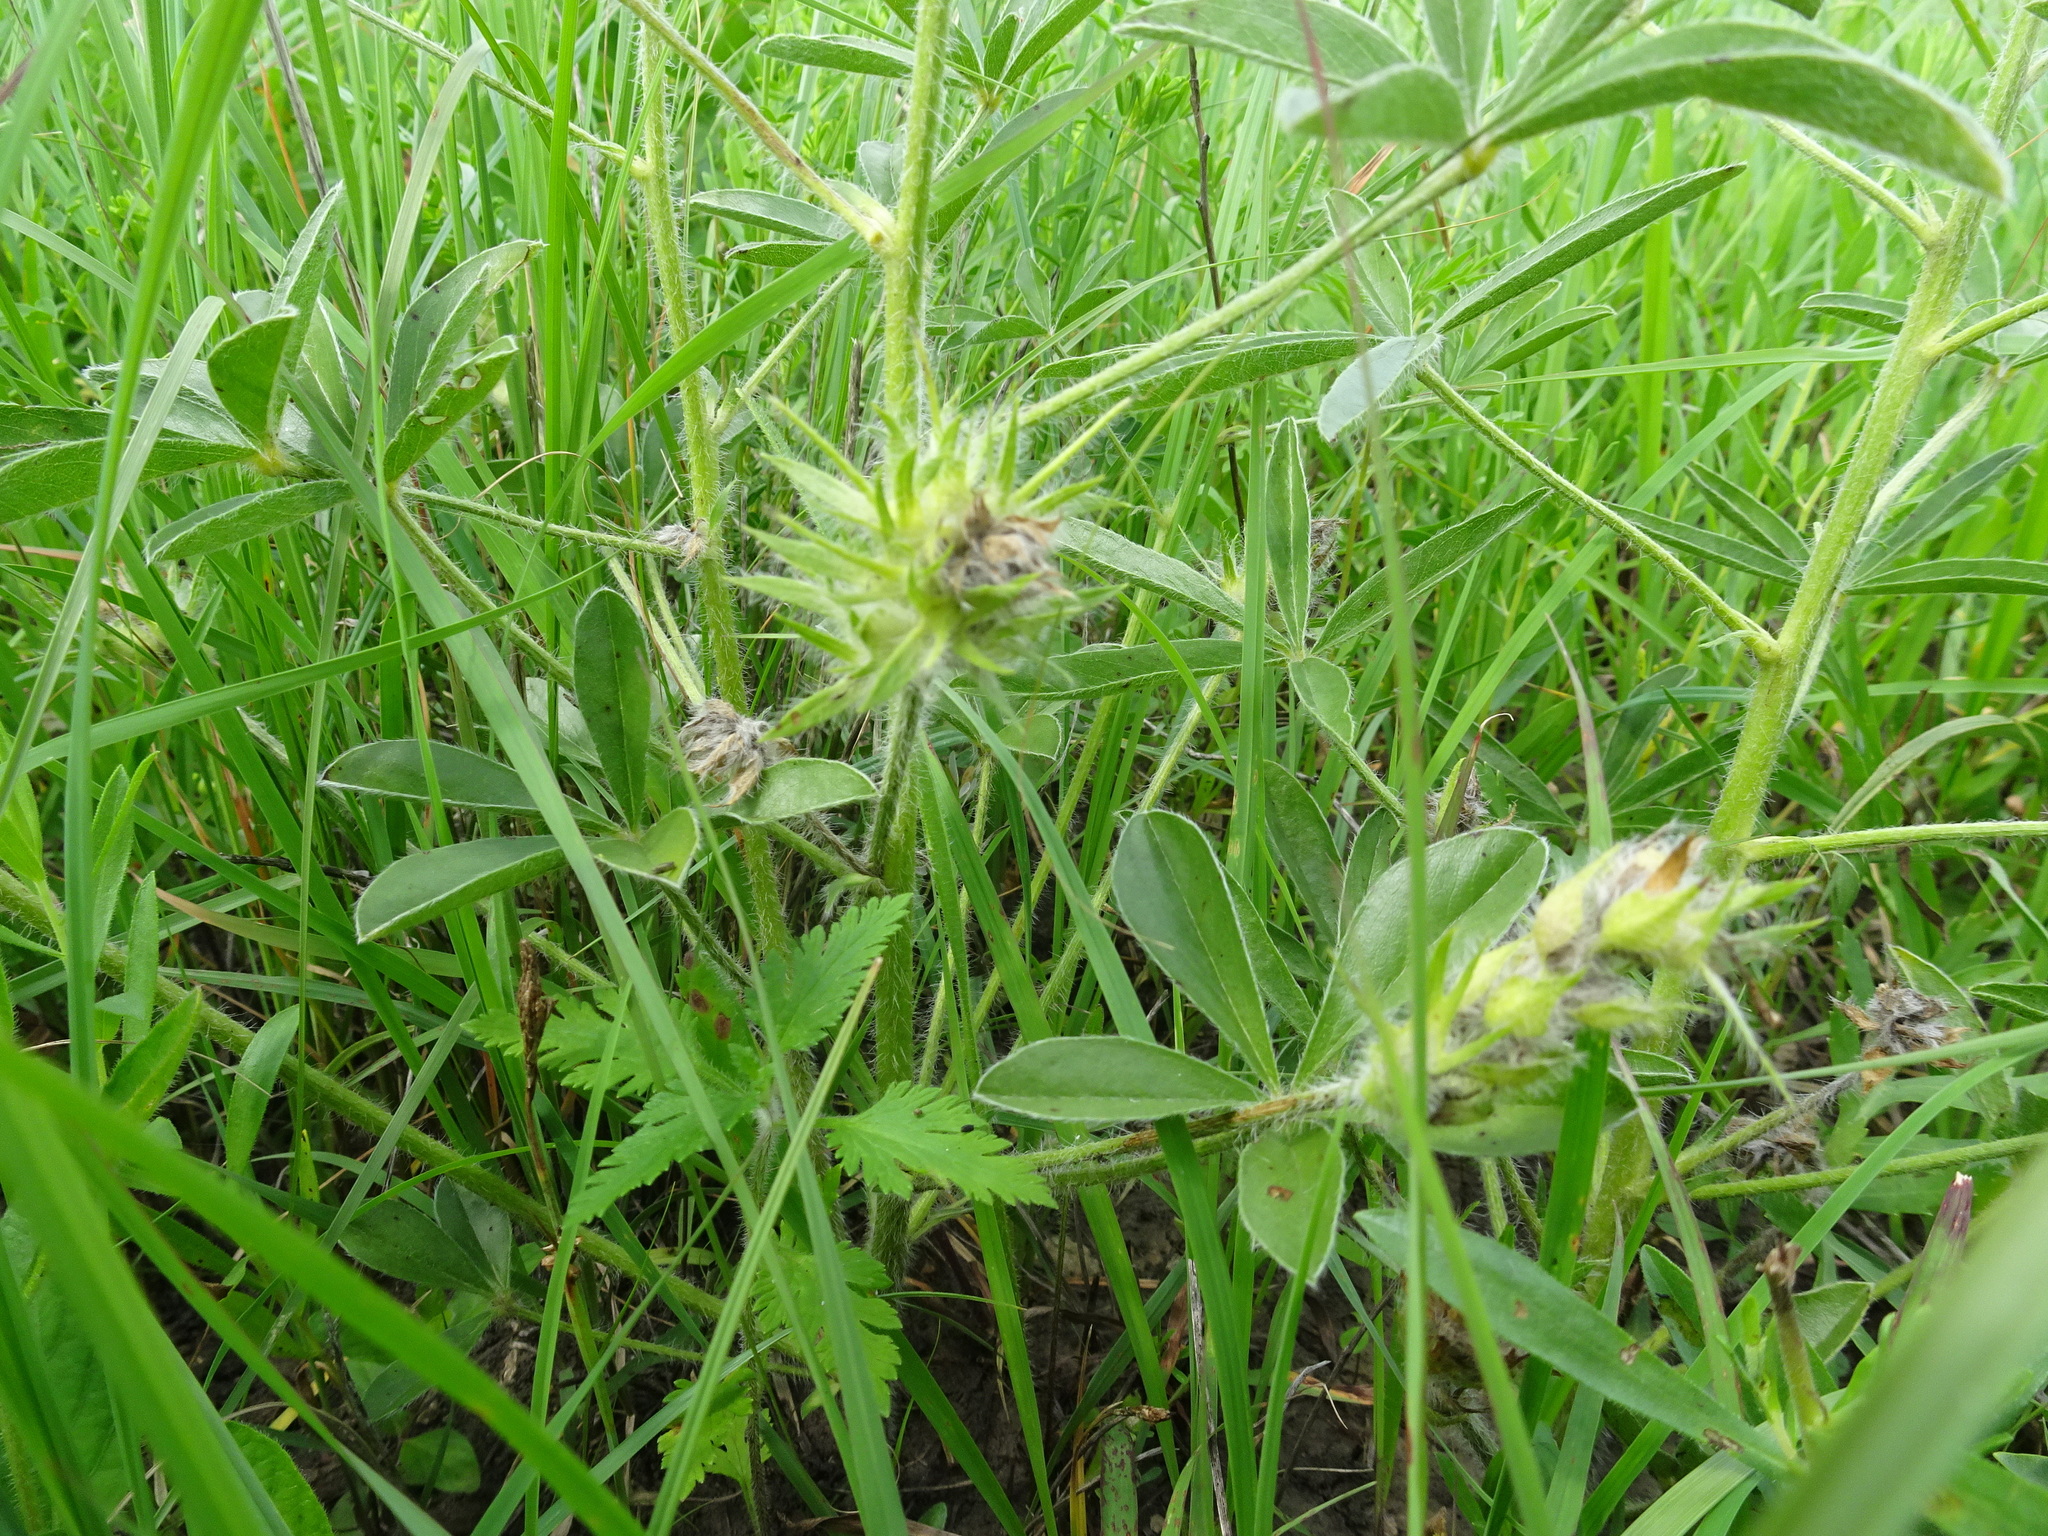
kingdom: Plantae
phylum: Tracheophyta
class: Magnoliopsida
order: Fabales
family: Fabaceae
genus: Pediomelum
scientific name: Pediomelum esculentum
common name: Indian-turnip
